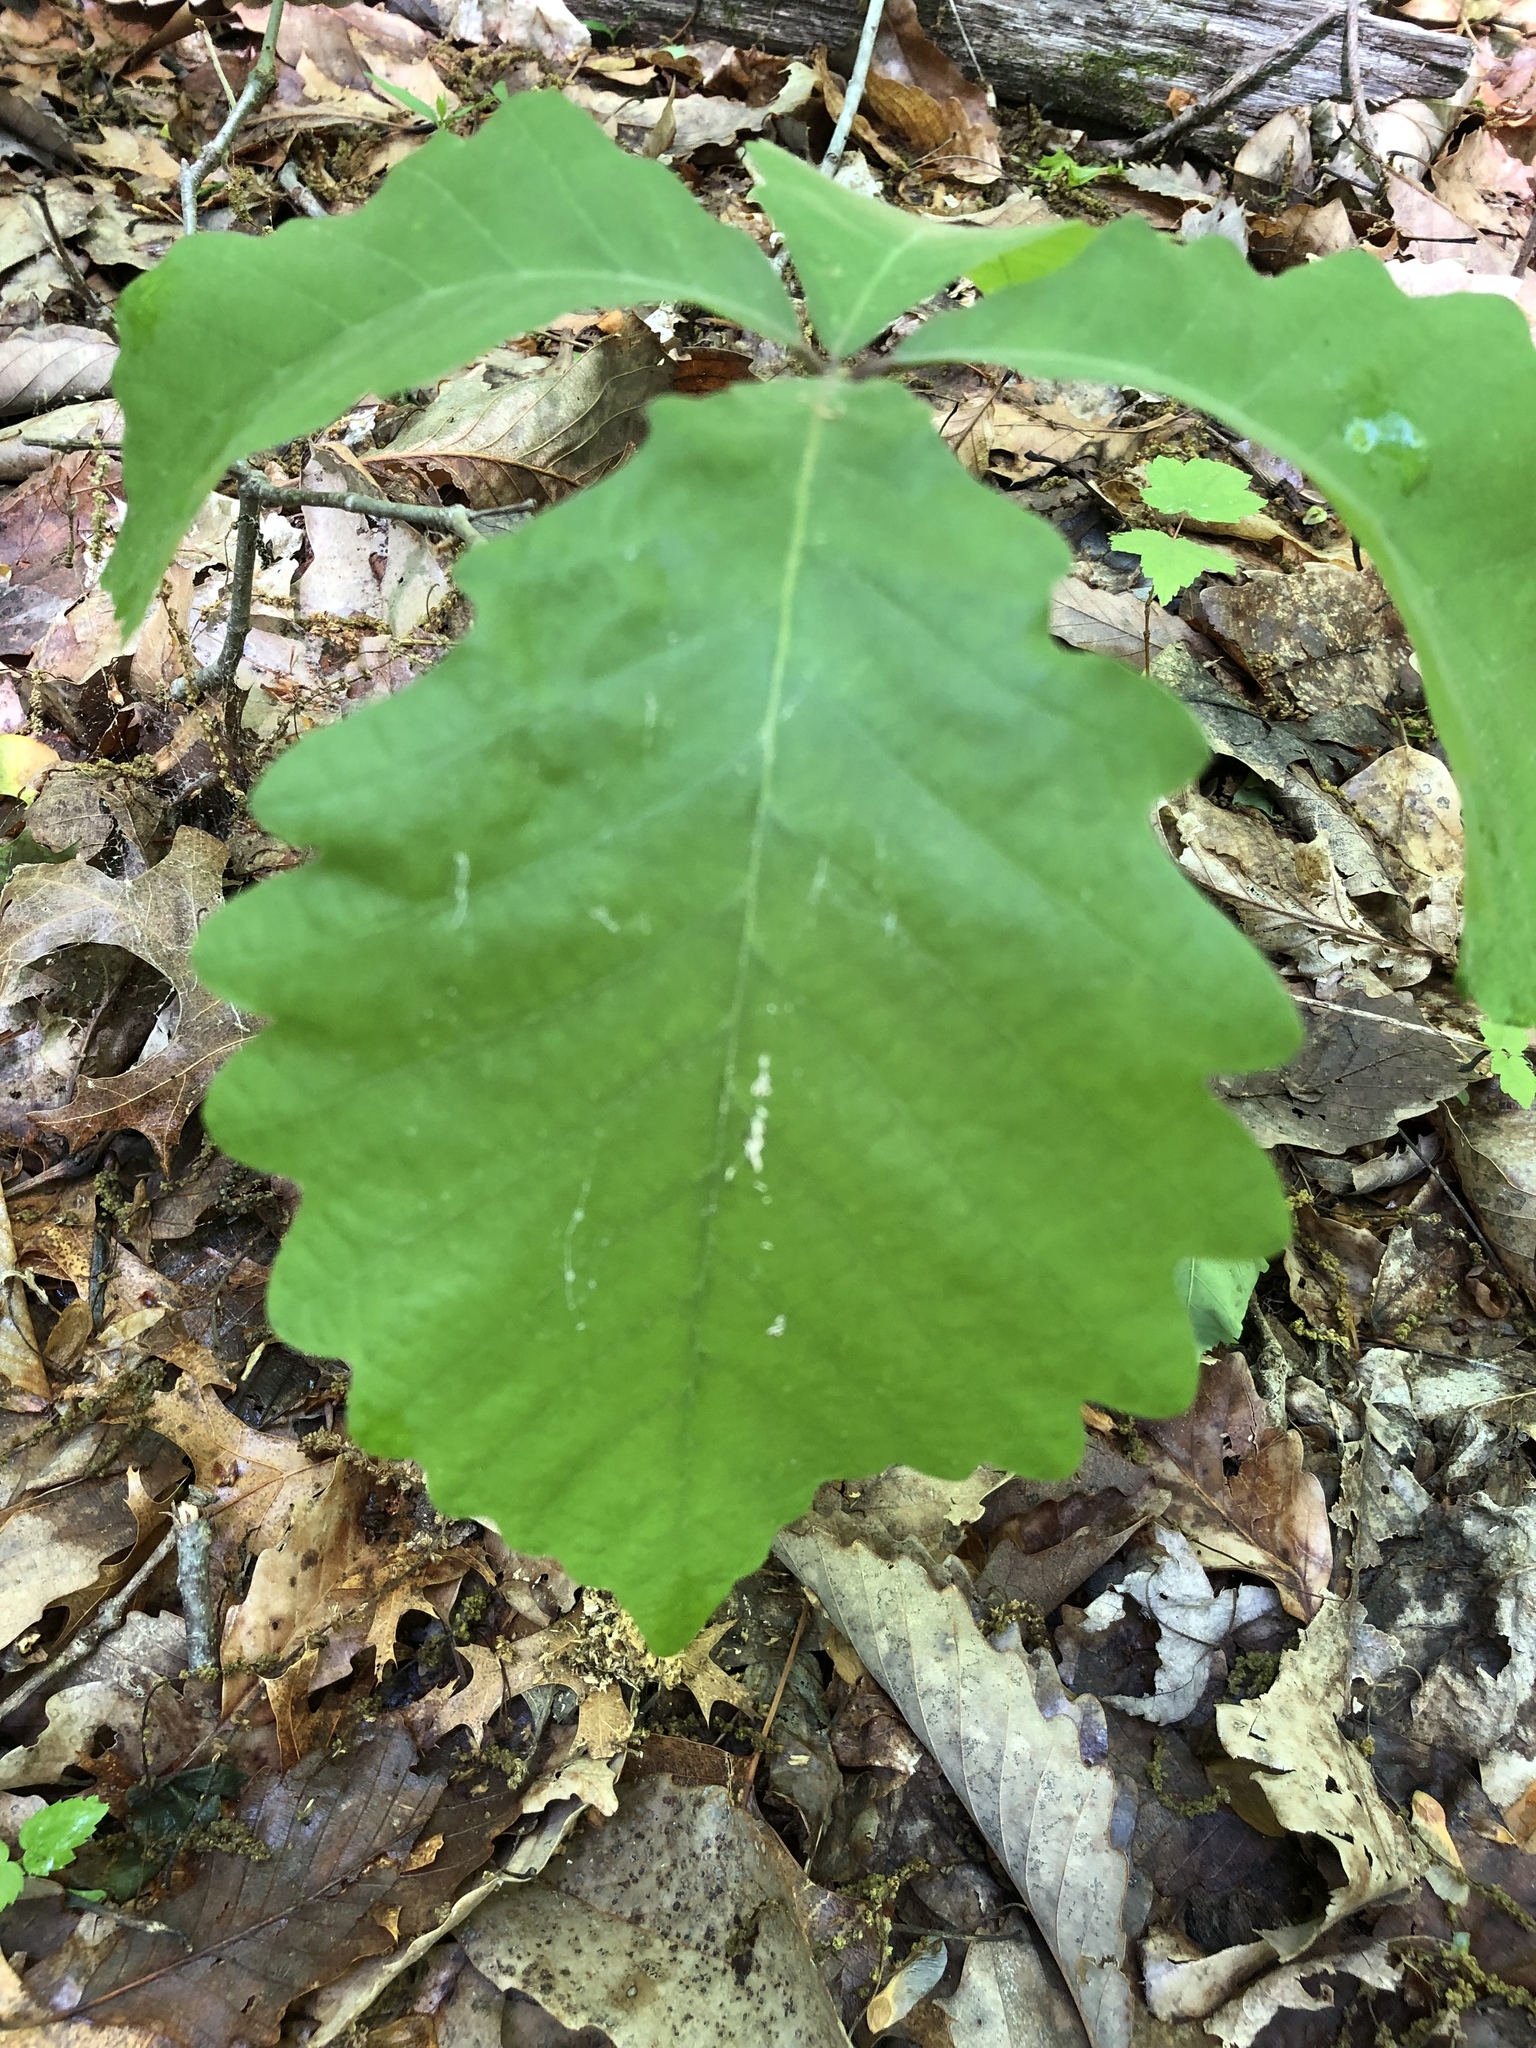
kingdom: Plantae
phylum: Tracheophyta
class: Magnoliopsida
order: Fagales
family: Fagaceae
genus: Quercus
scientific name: Quercus montana
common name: Chestnut oak
